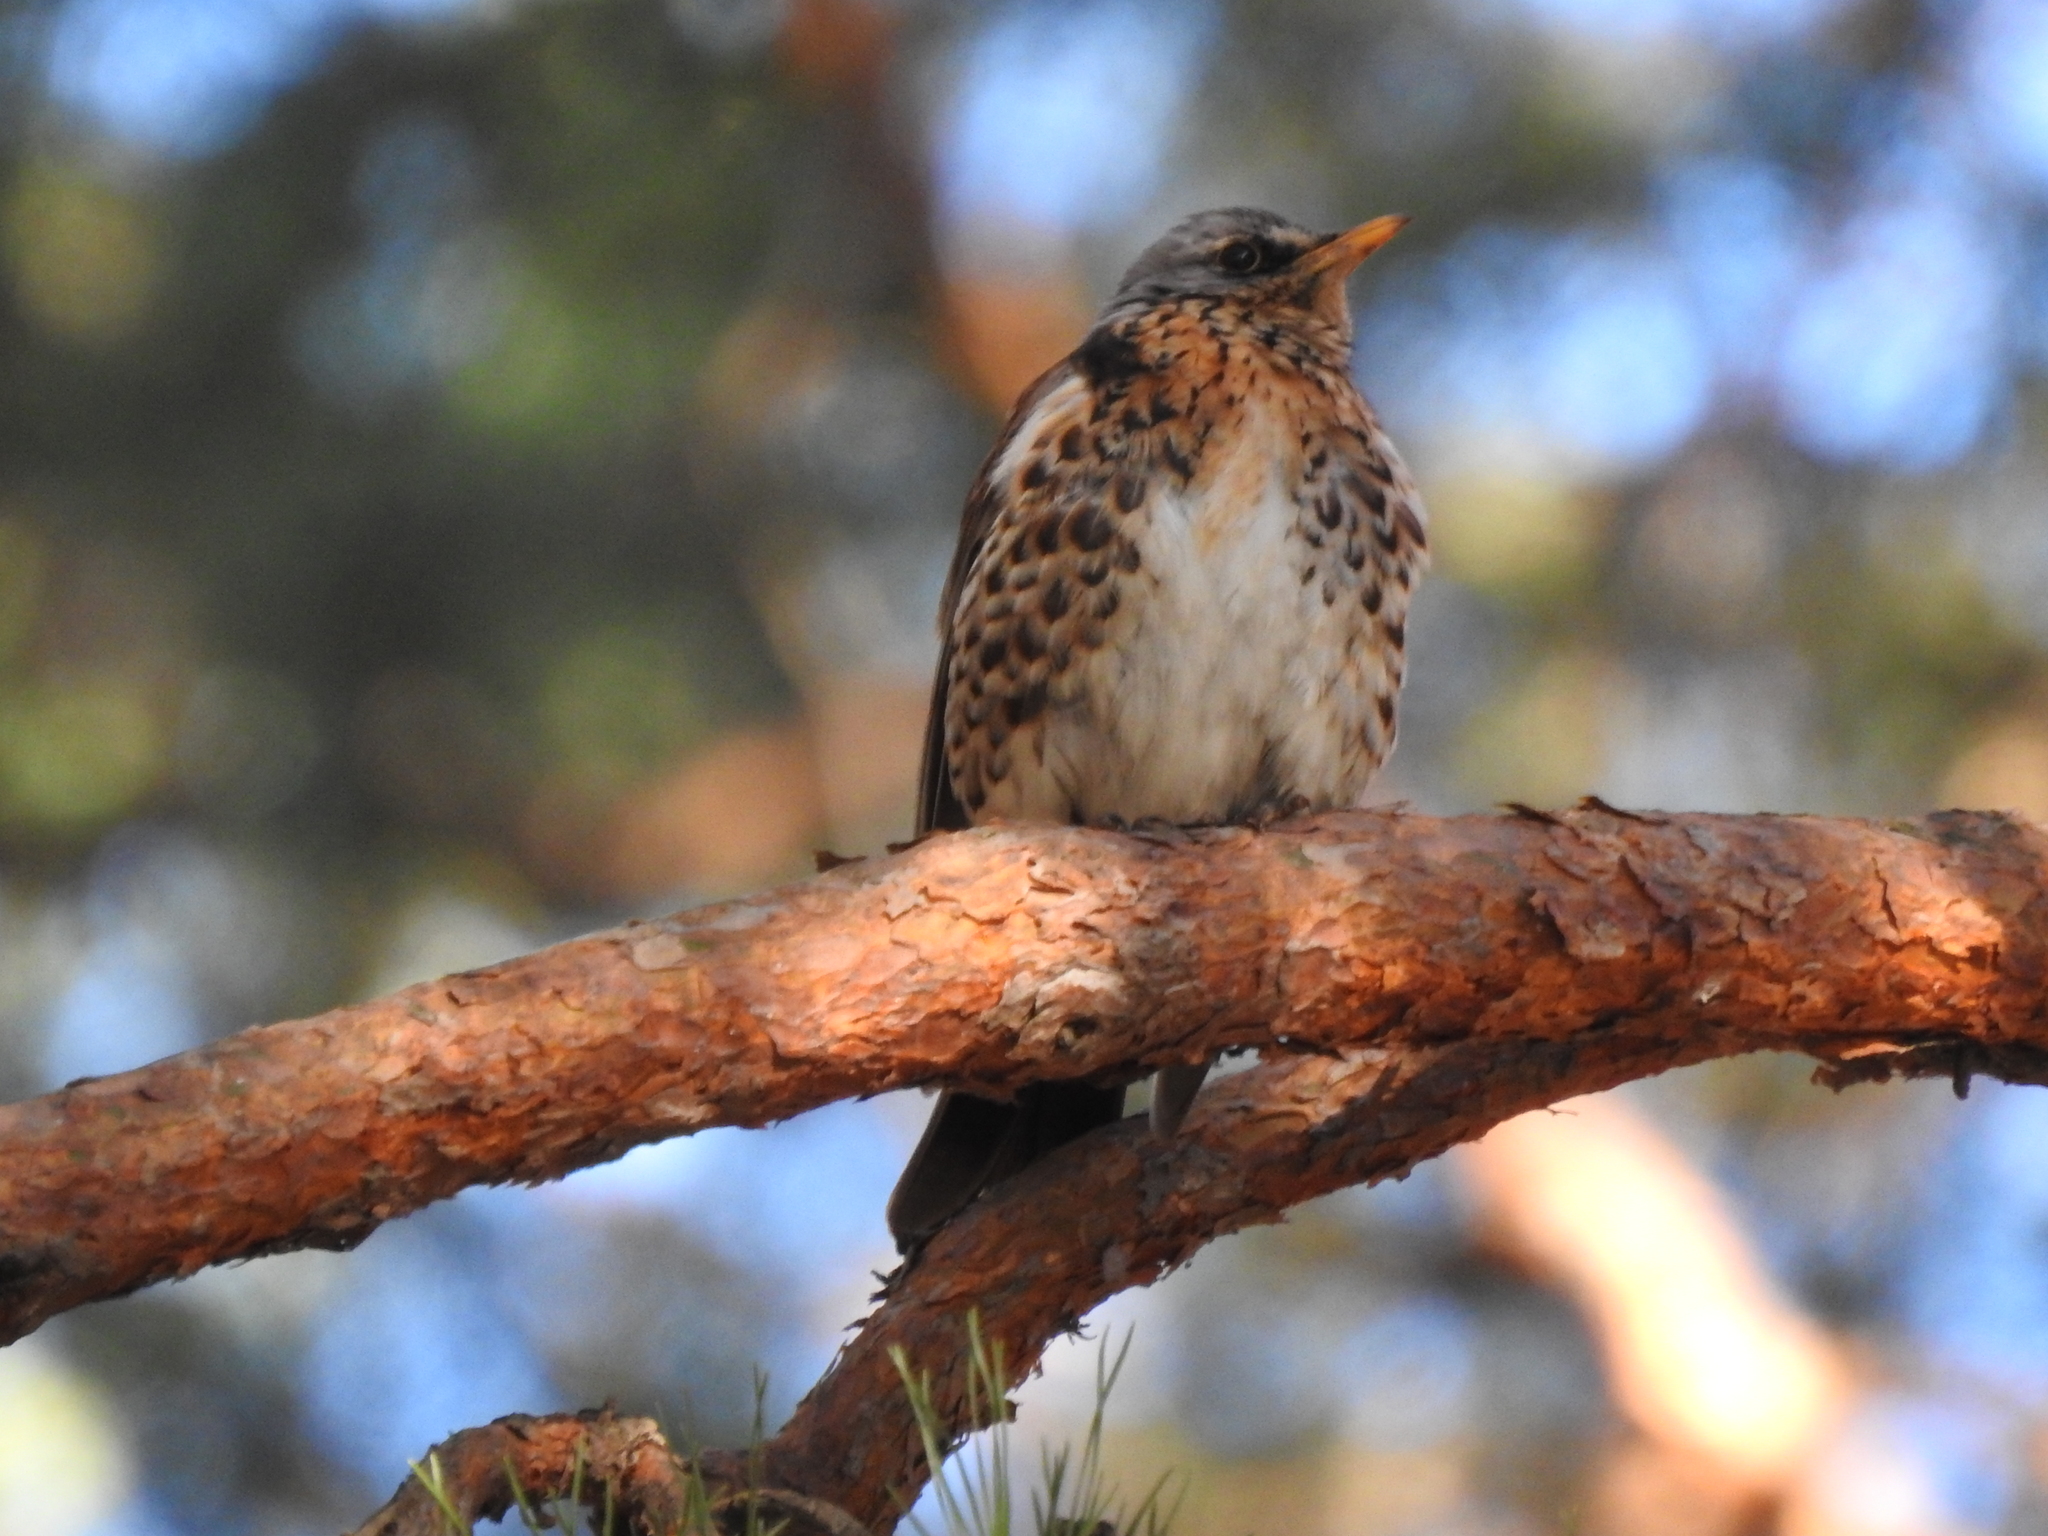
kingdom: Animalia
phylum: Chordata
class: Aves
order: Passeriformes
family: Turdidae
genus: Turdus
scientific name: Turdus pilaris
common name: Fieldfare
